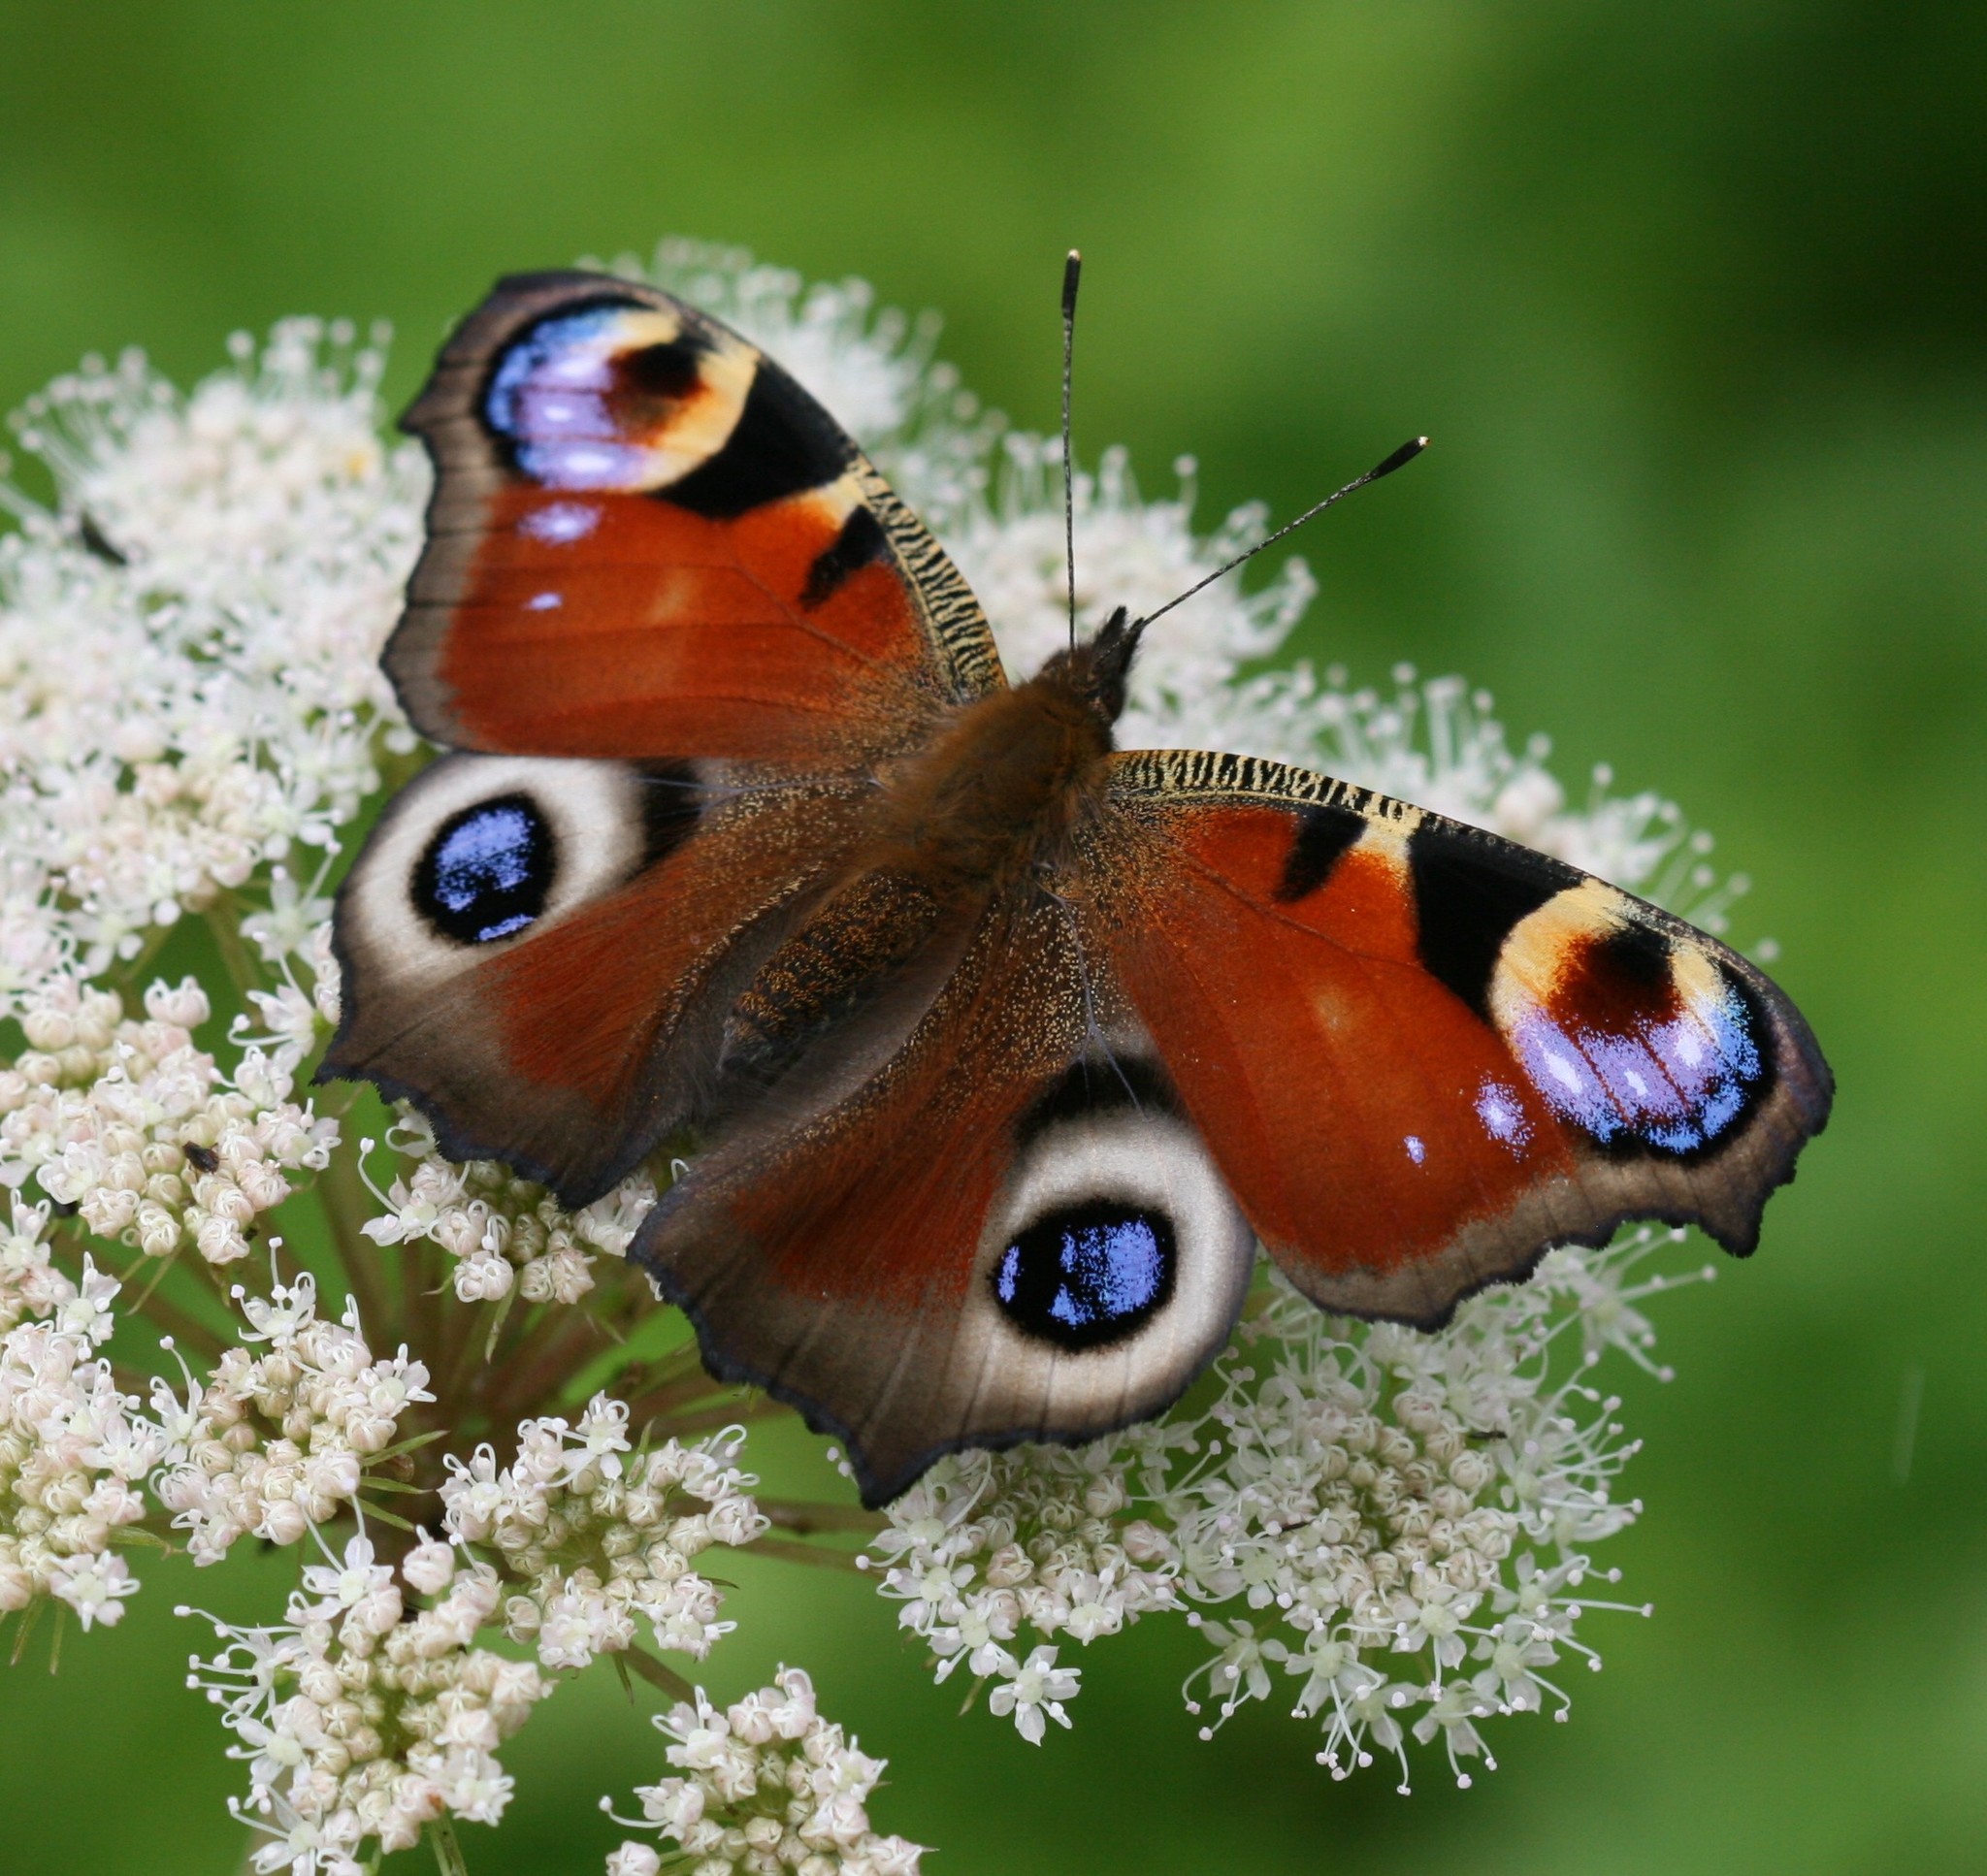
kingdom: Animalia
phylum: Arthropoda
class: Insecta
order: Lepidoptera
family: Nymphalidae
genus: Aglais
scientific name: Aglais io
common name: Peacock
